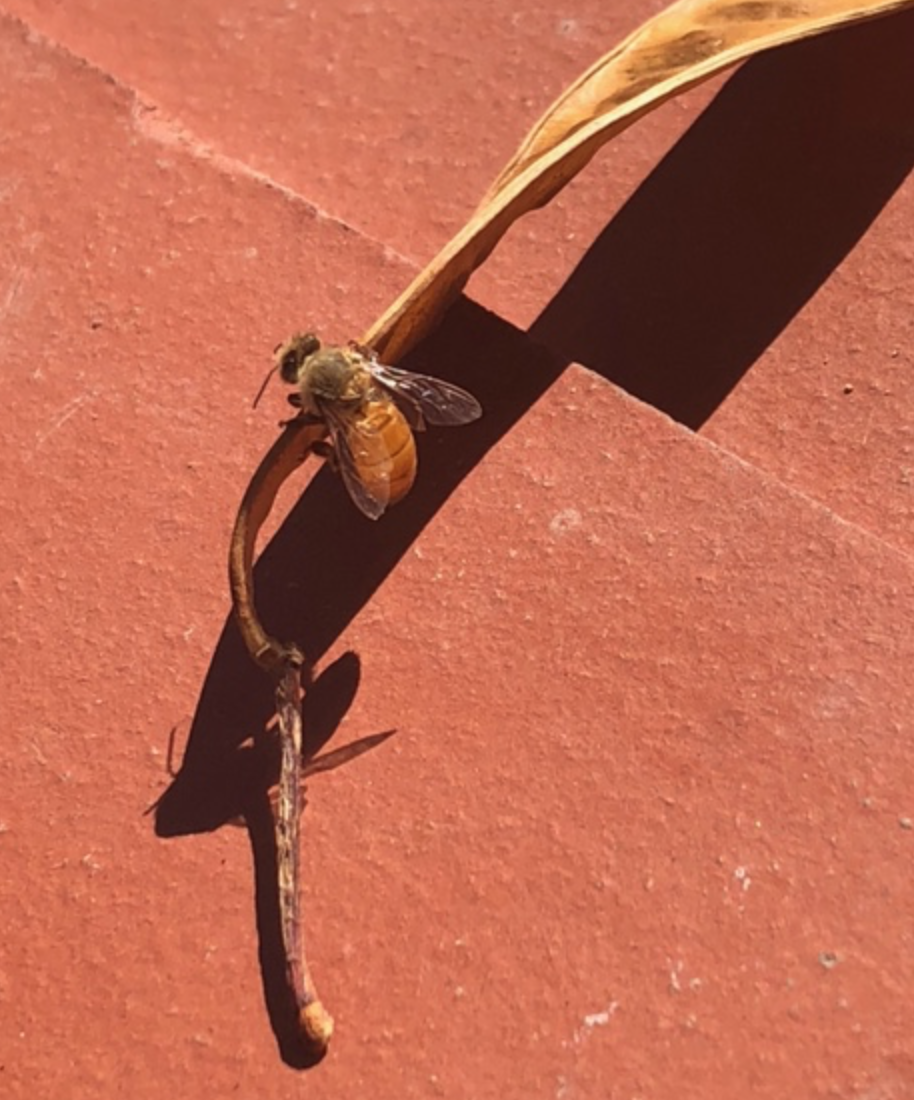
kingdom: Animalia
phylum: Arthropoda
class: Insecta
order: Hymenoptera
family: Apidae
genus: Apis
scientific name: Apis mellifera
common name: Honey bee
